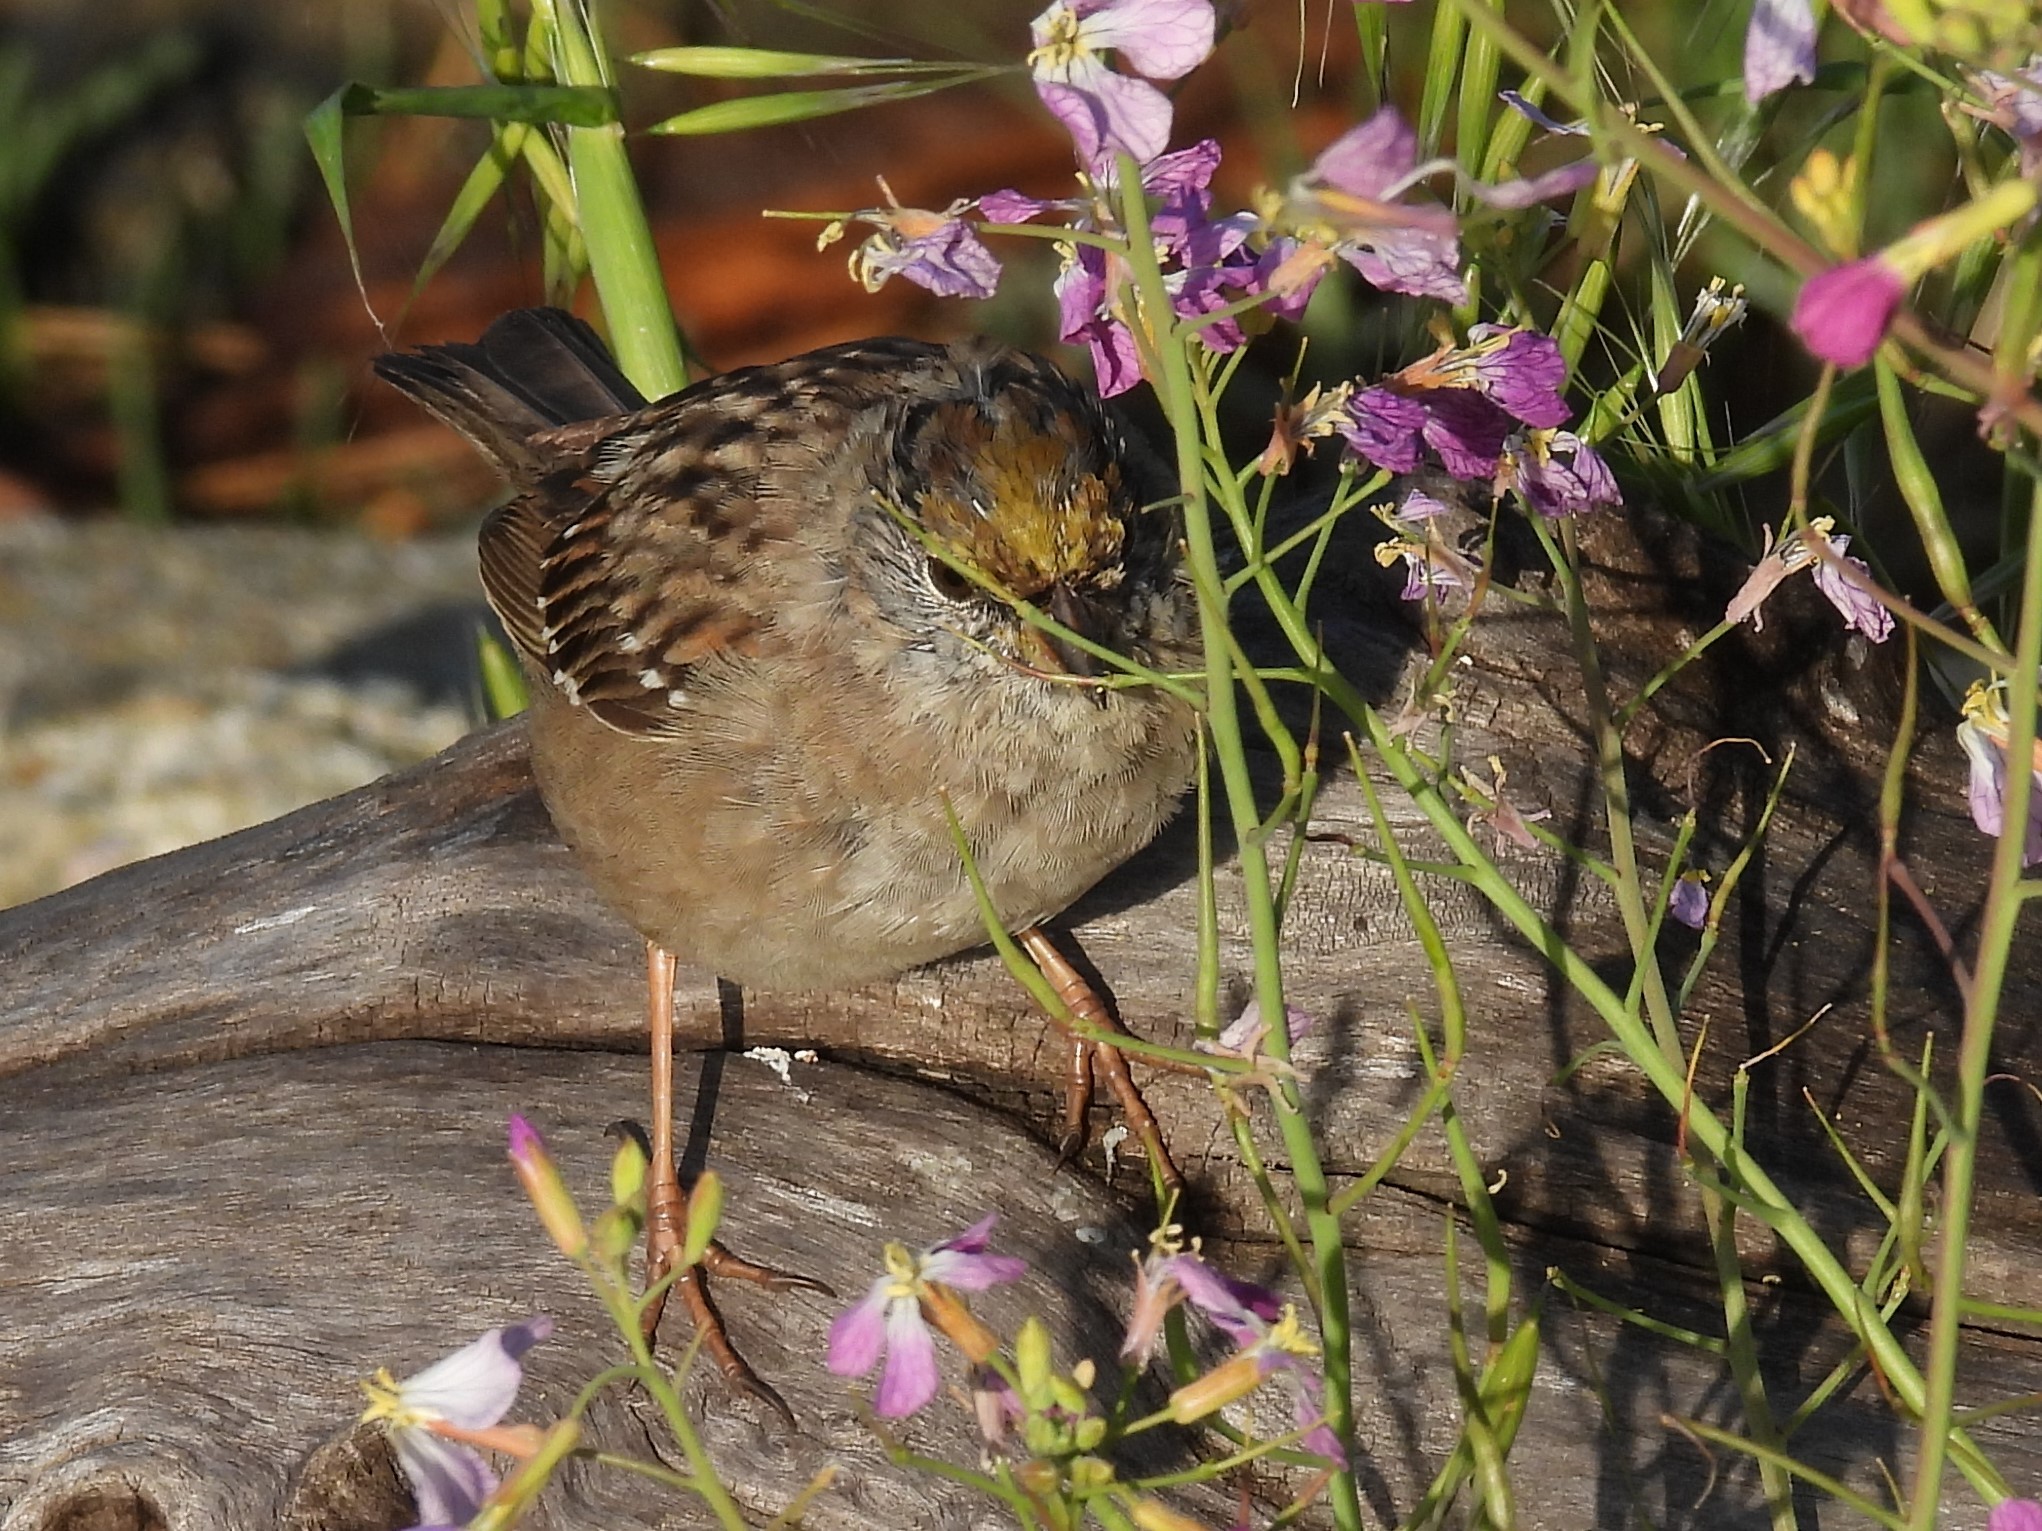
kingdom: Animalia
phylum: Chordata
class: Aves
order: Passeriformes
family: Passerellidae
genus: Zonotrichia
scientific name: Zonotrichia atricapilla
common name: Golden-crowned sparrow
